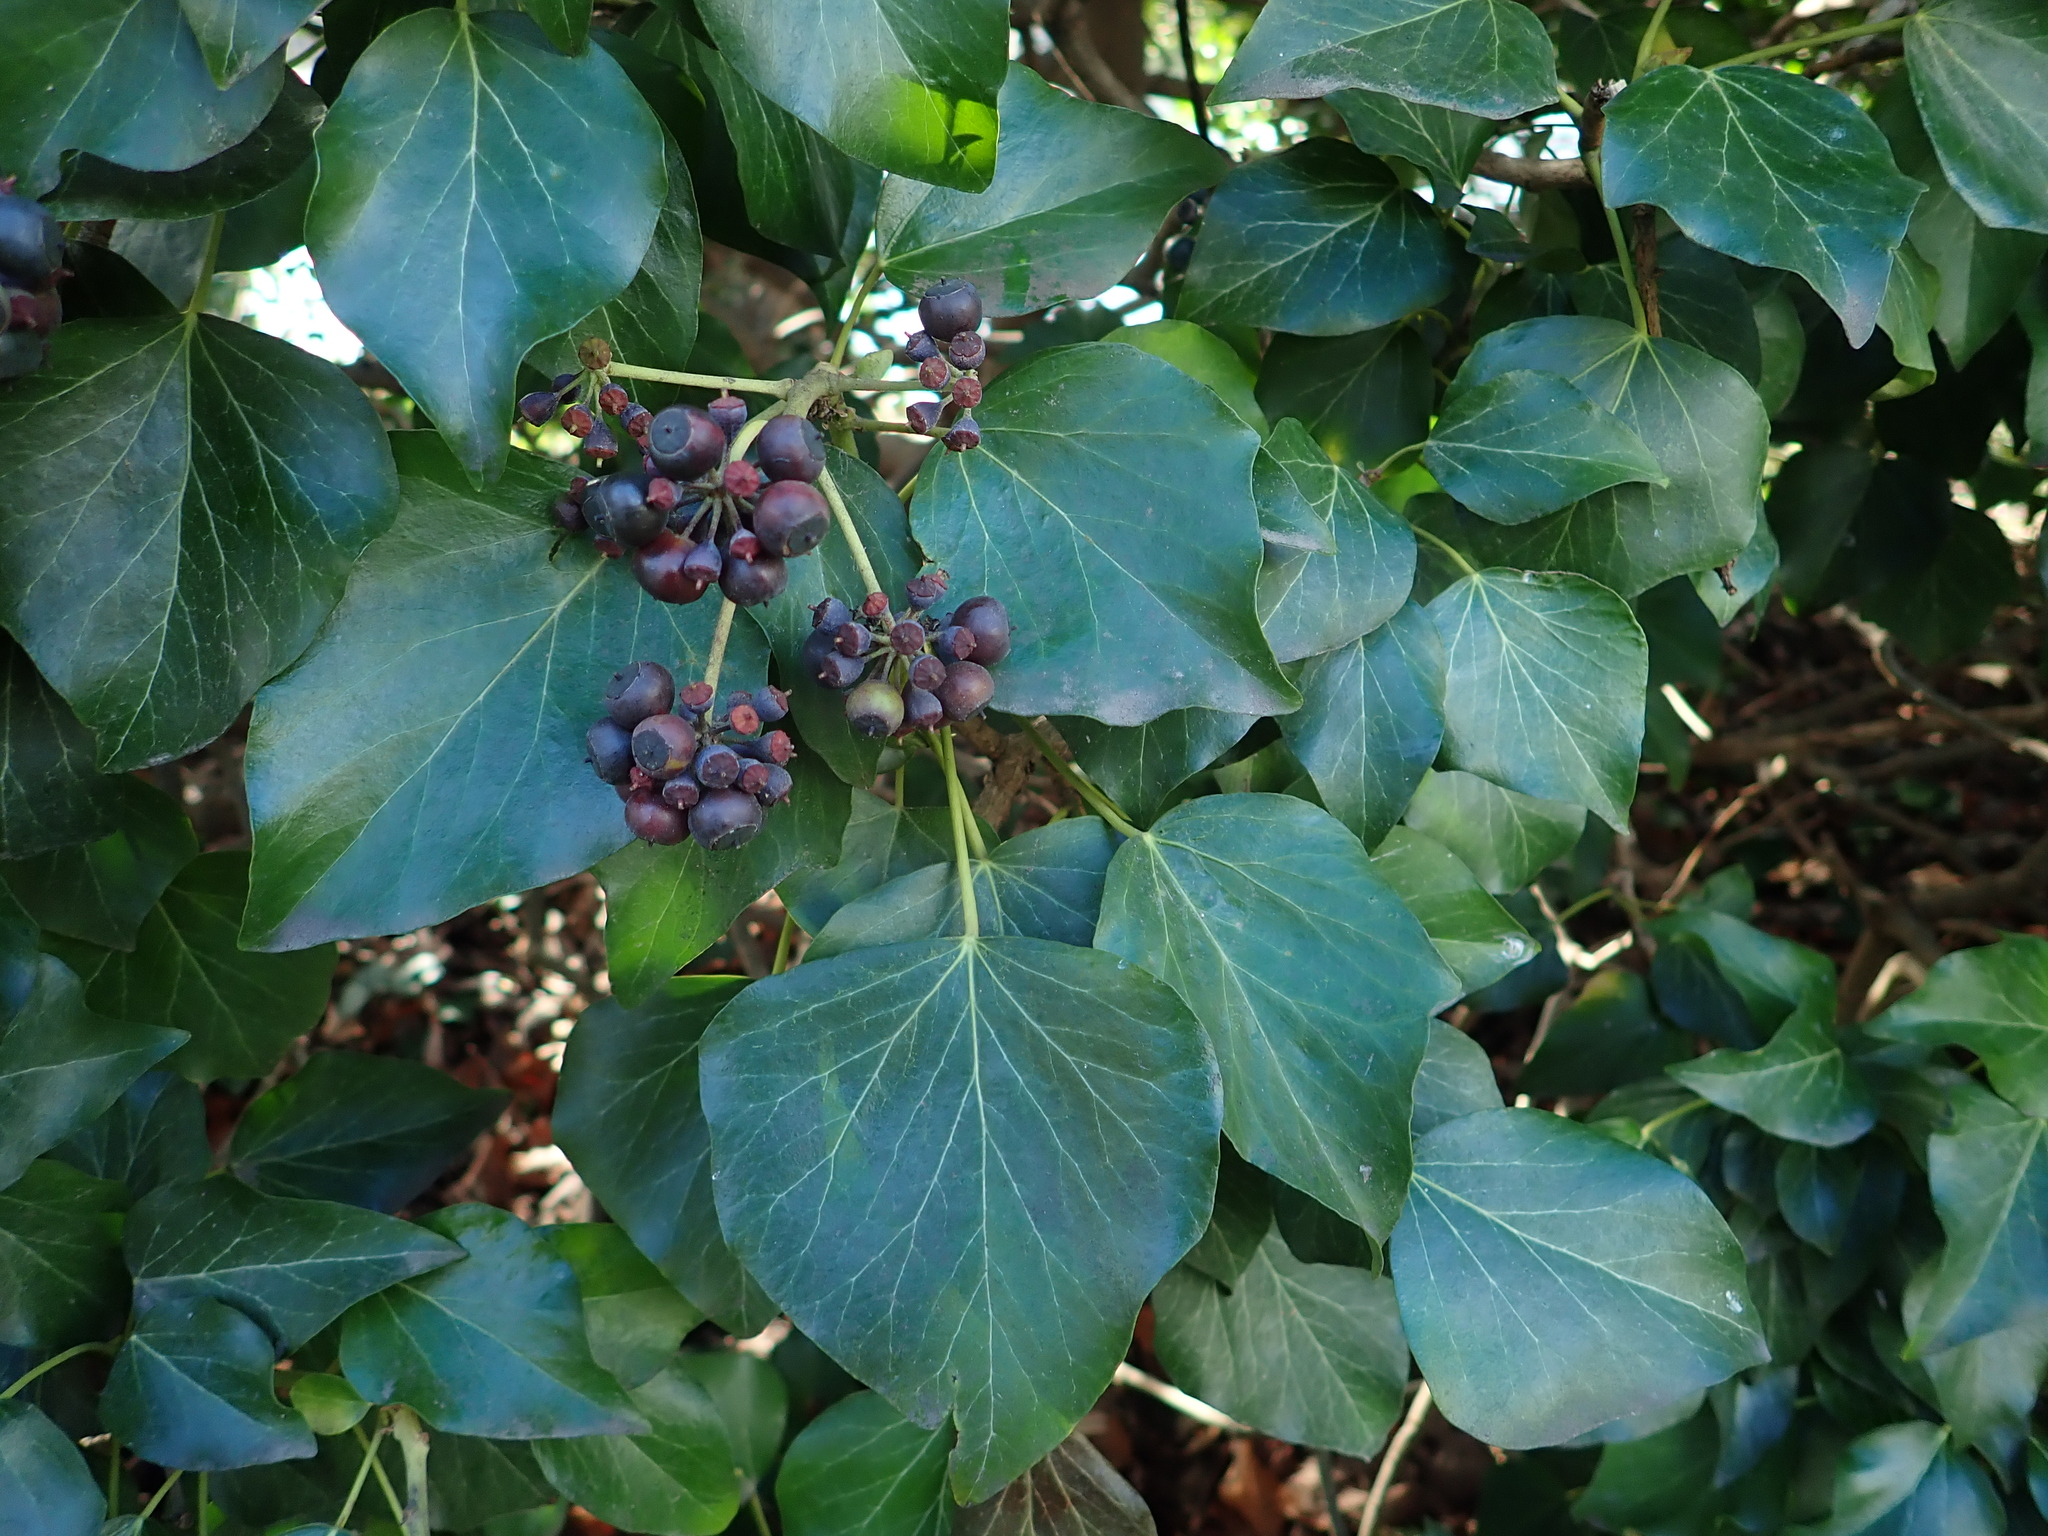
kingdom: Plantae
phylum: Tracheophyta
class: Magnoliopsida
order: Apiales
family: Araliaceae
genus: Hedera
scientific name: Hedera helix
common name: Ivy
